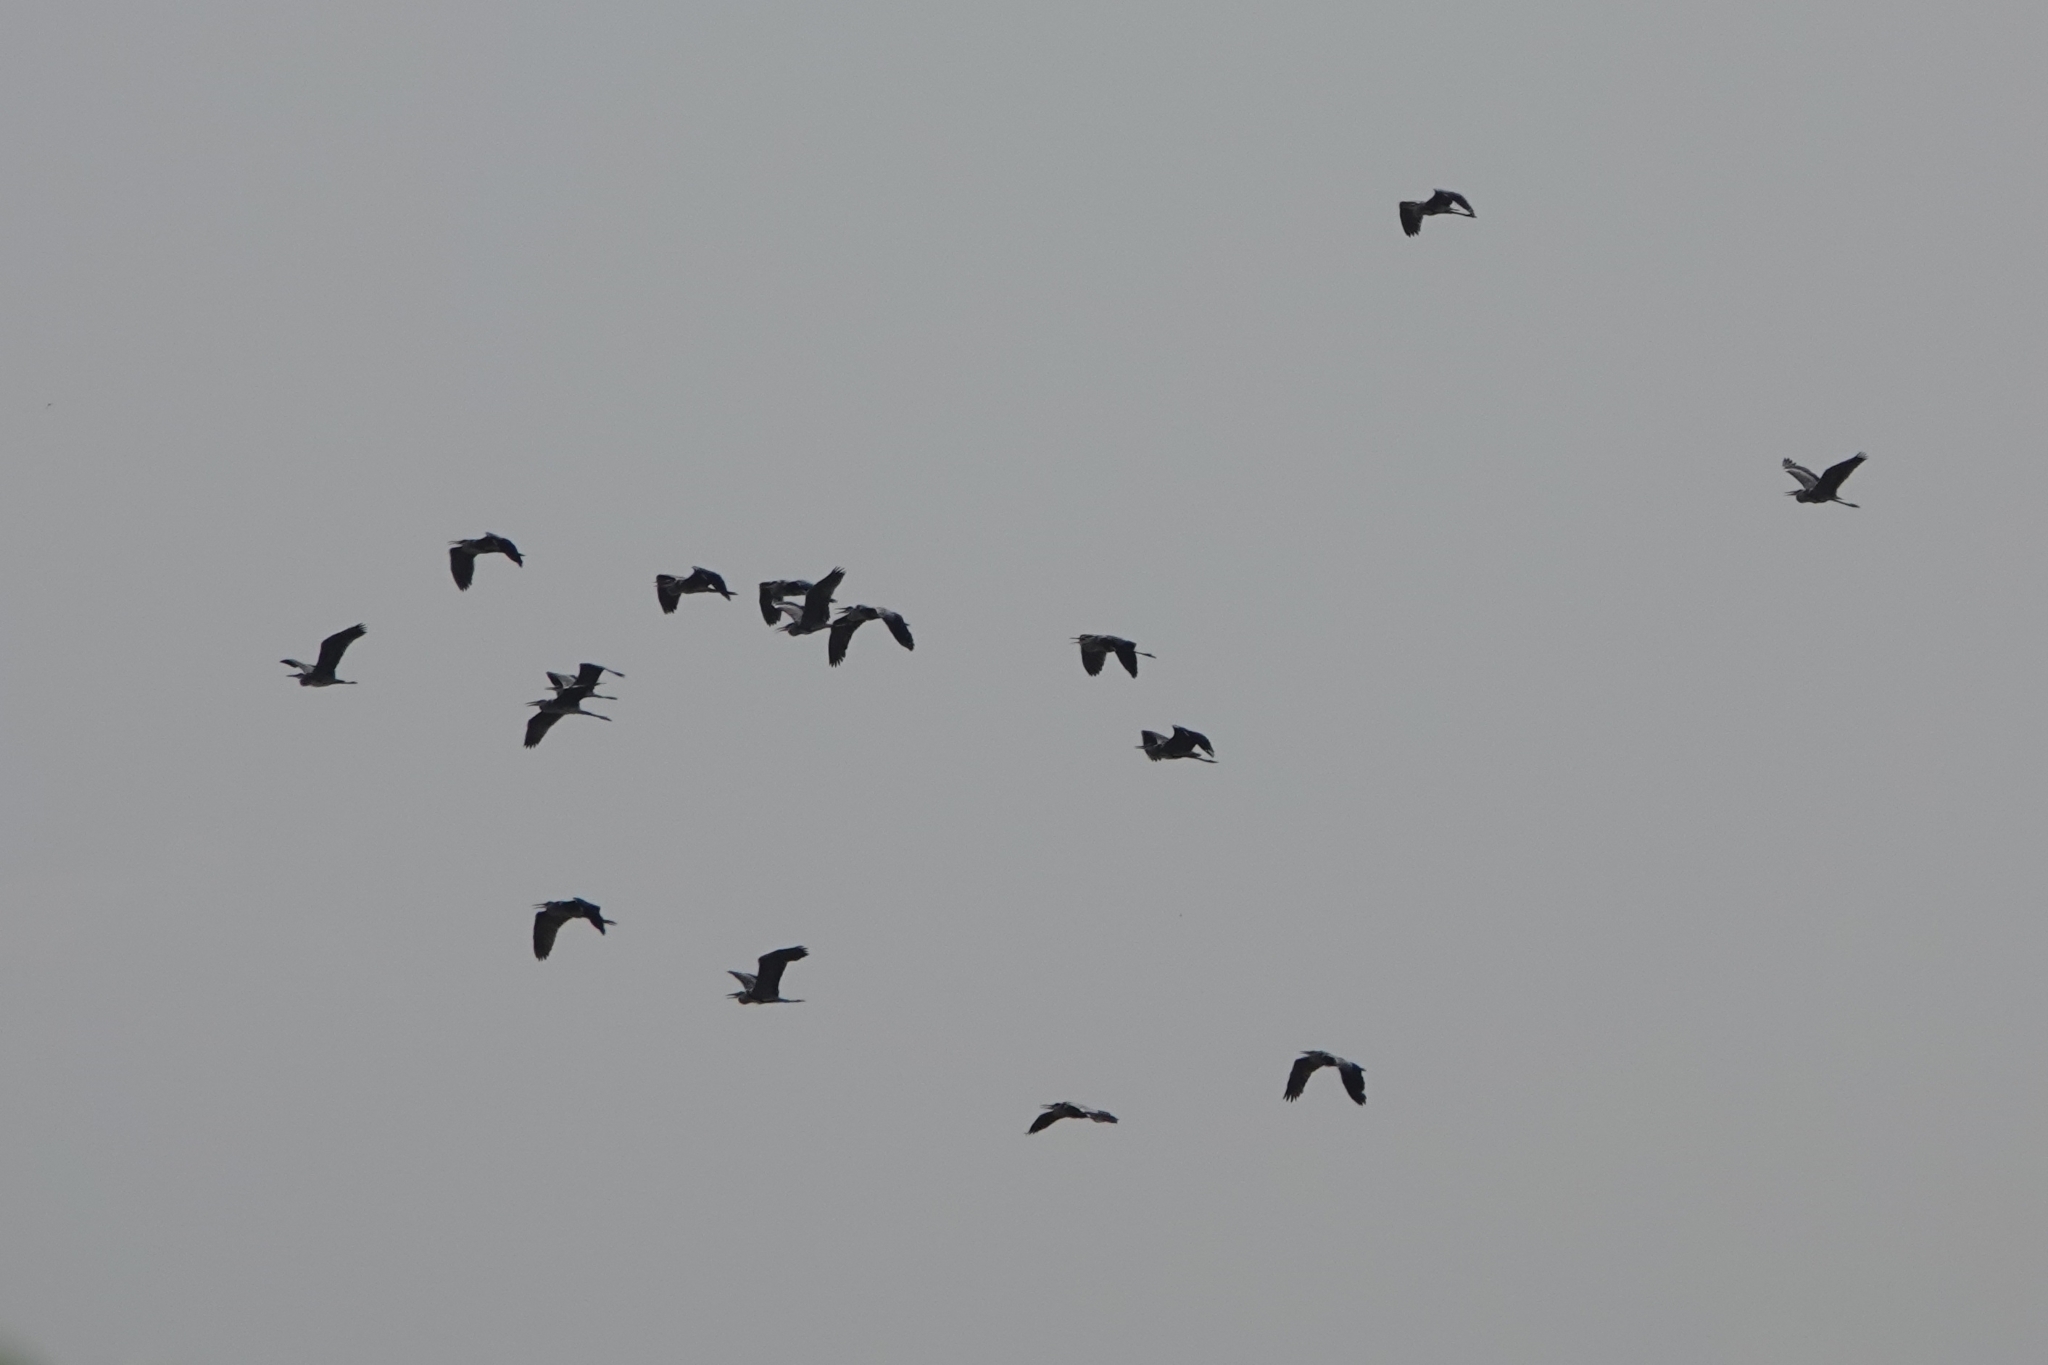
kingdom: Animalia
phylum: Chordata
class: Aves
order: Pelecaniformes
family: Ardeidae
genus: Ardea
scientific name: Ardea cinerea
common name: Grey heron
